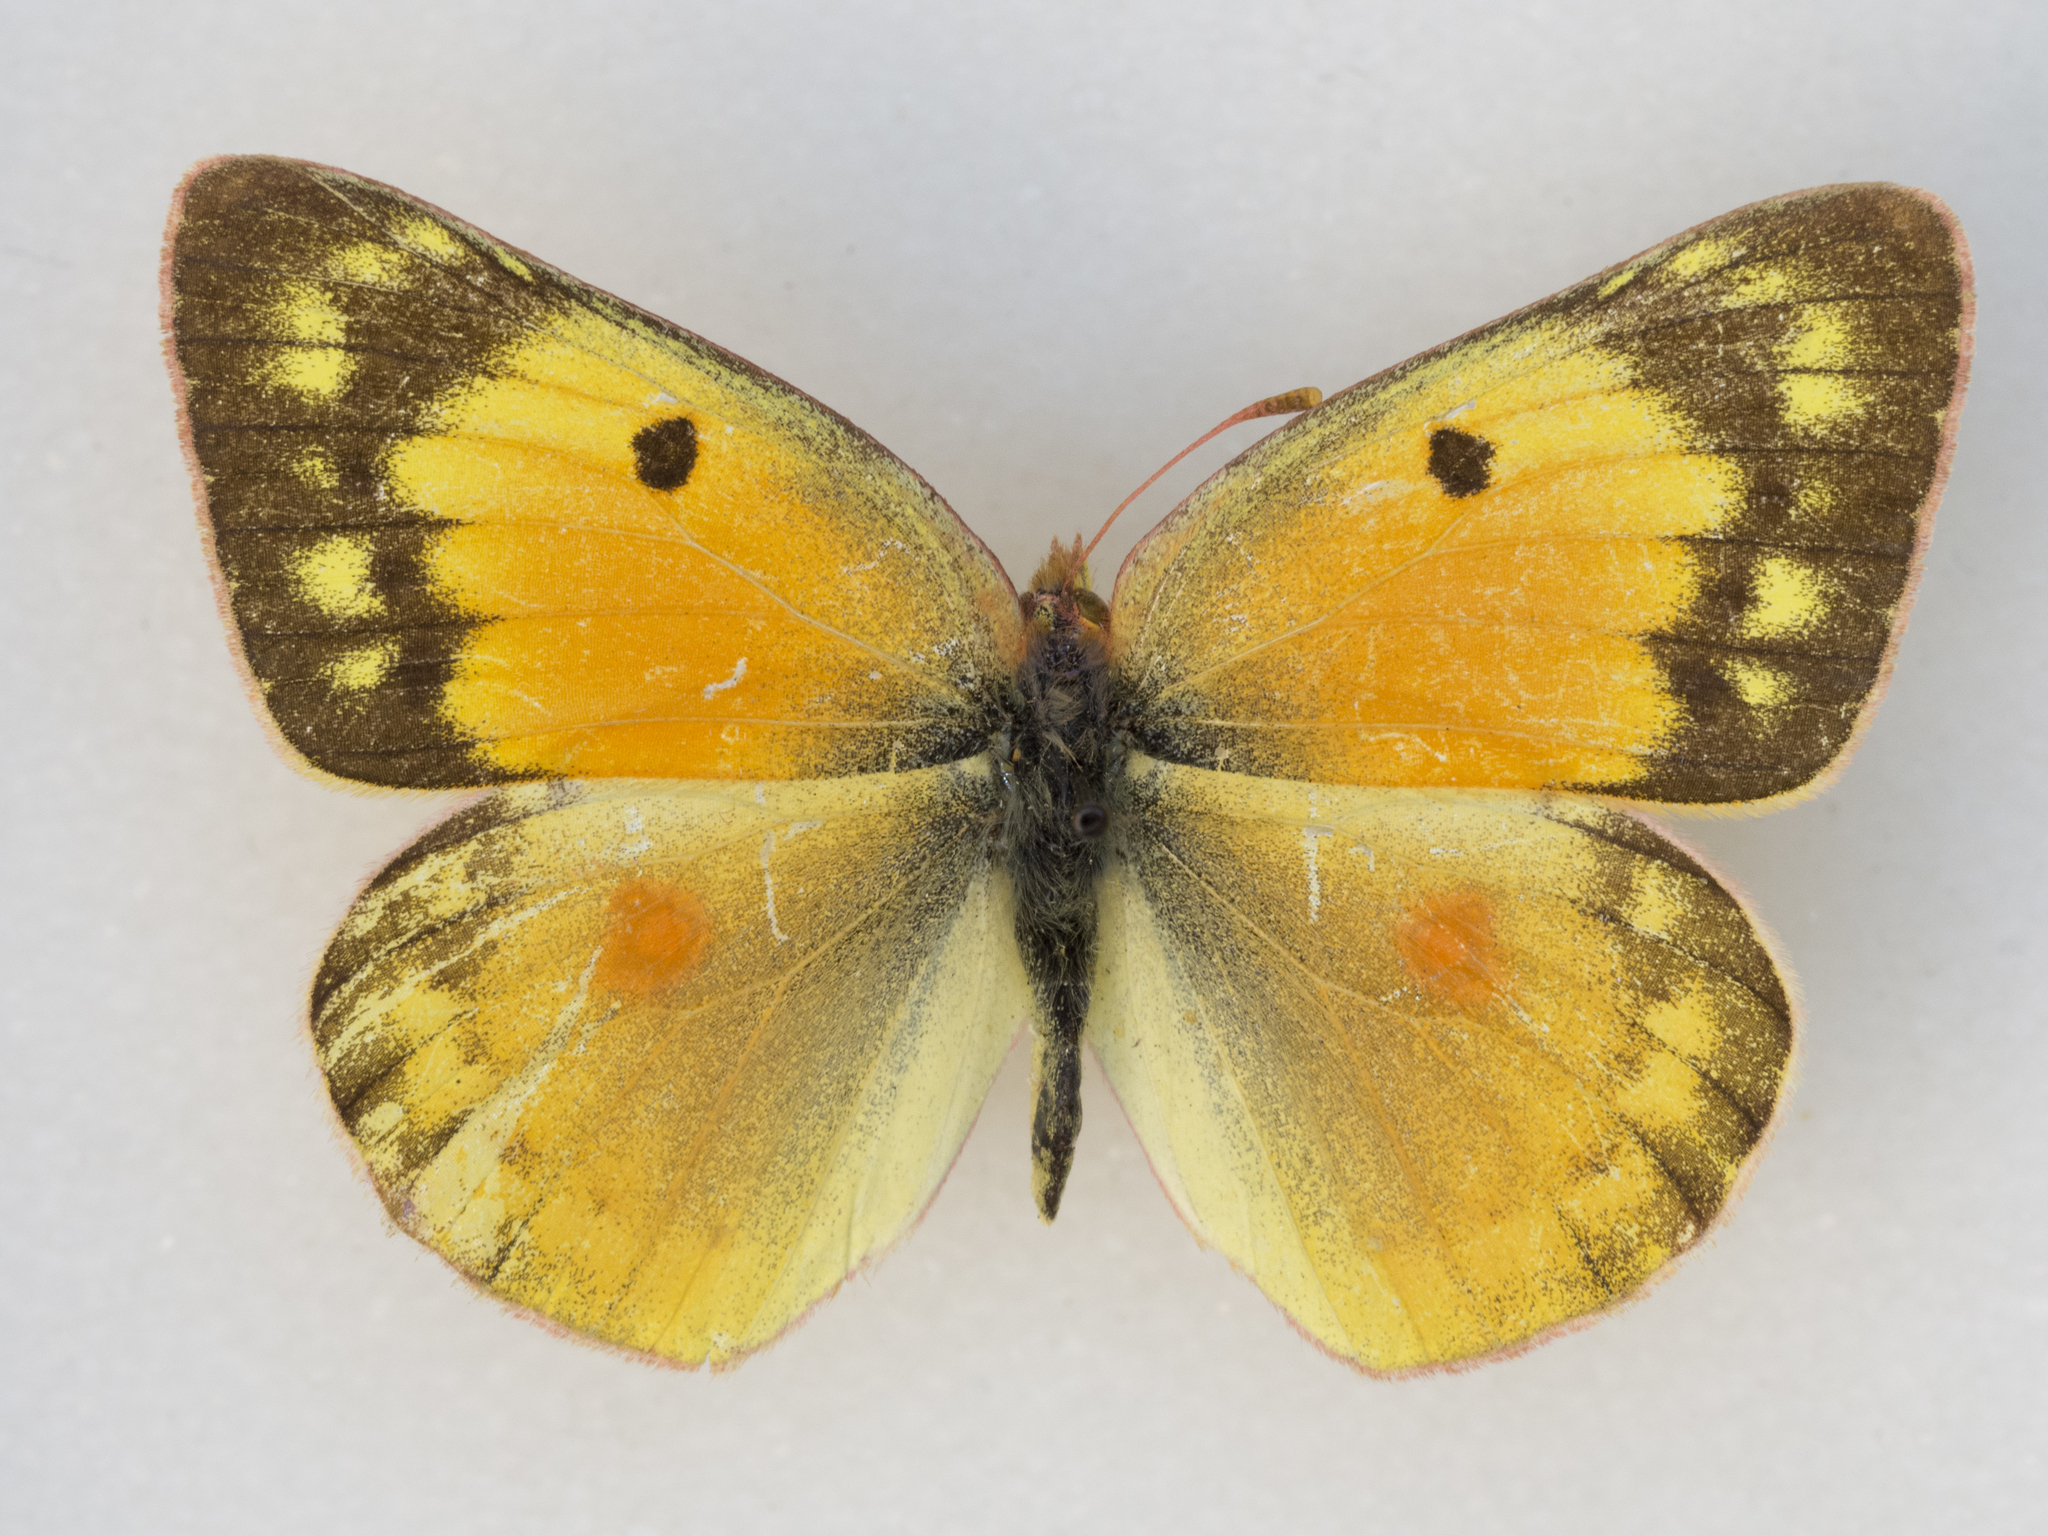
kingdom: Animalia
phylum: Arthropoda
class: Insecta
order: Lepidoptera
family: Pieridae
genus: Colias
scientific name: Colias eurytheme
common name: Alfalfa butterfly
